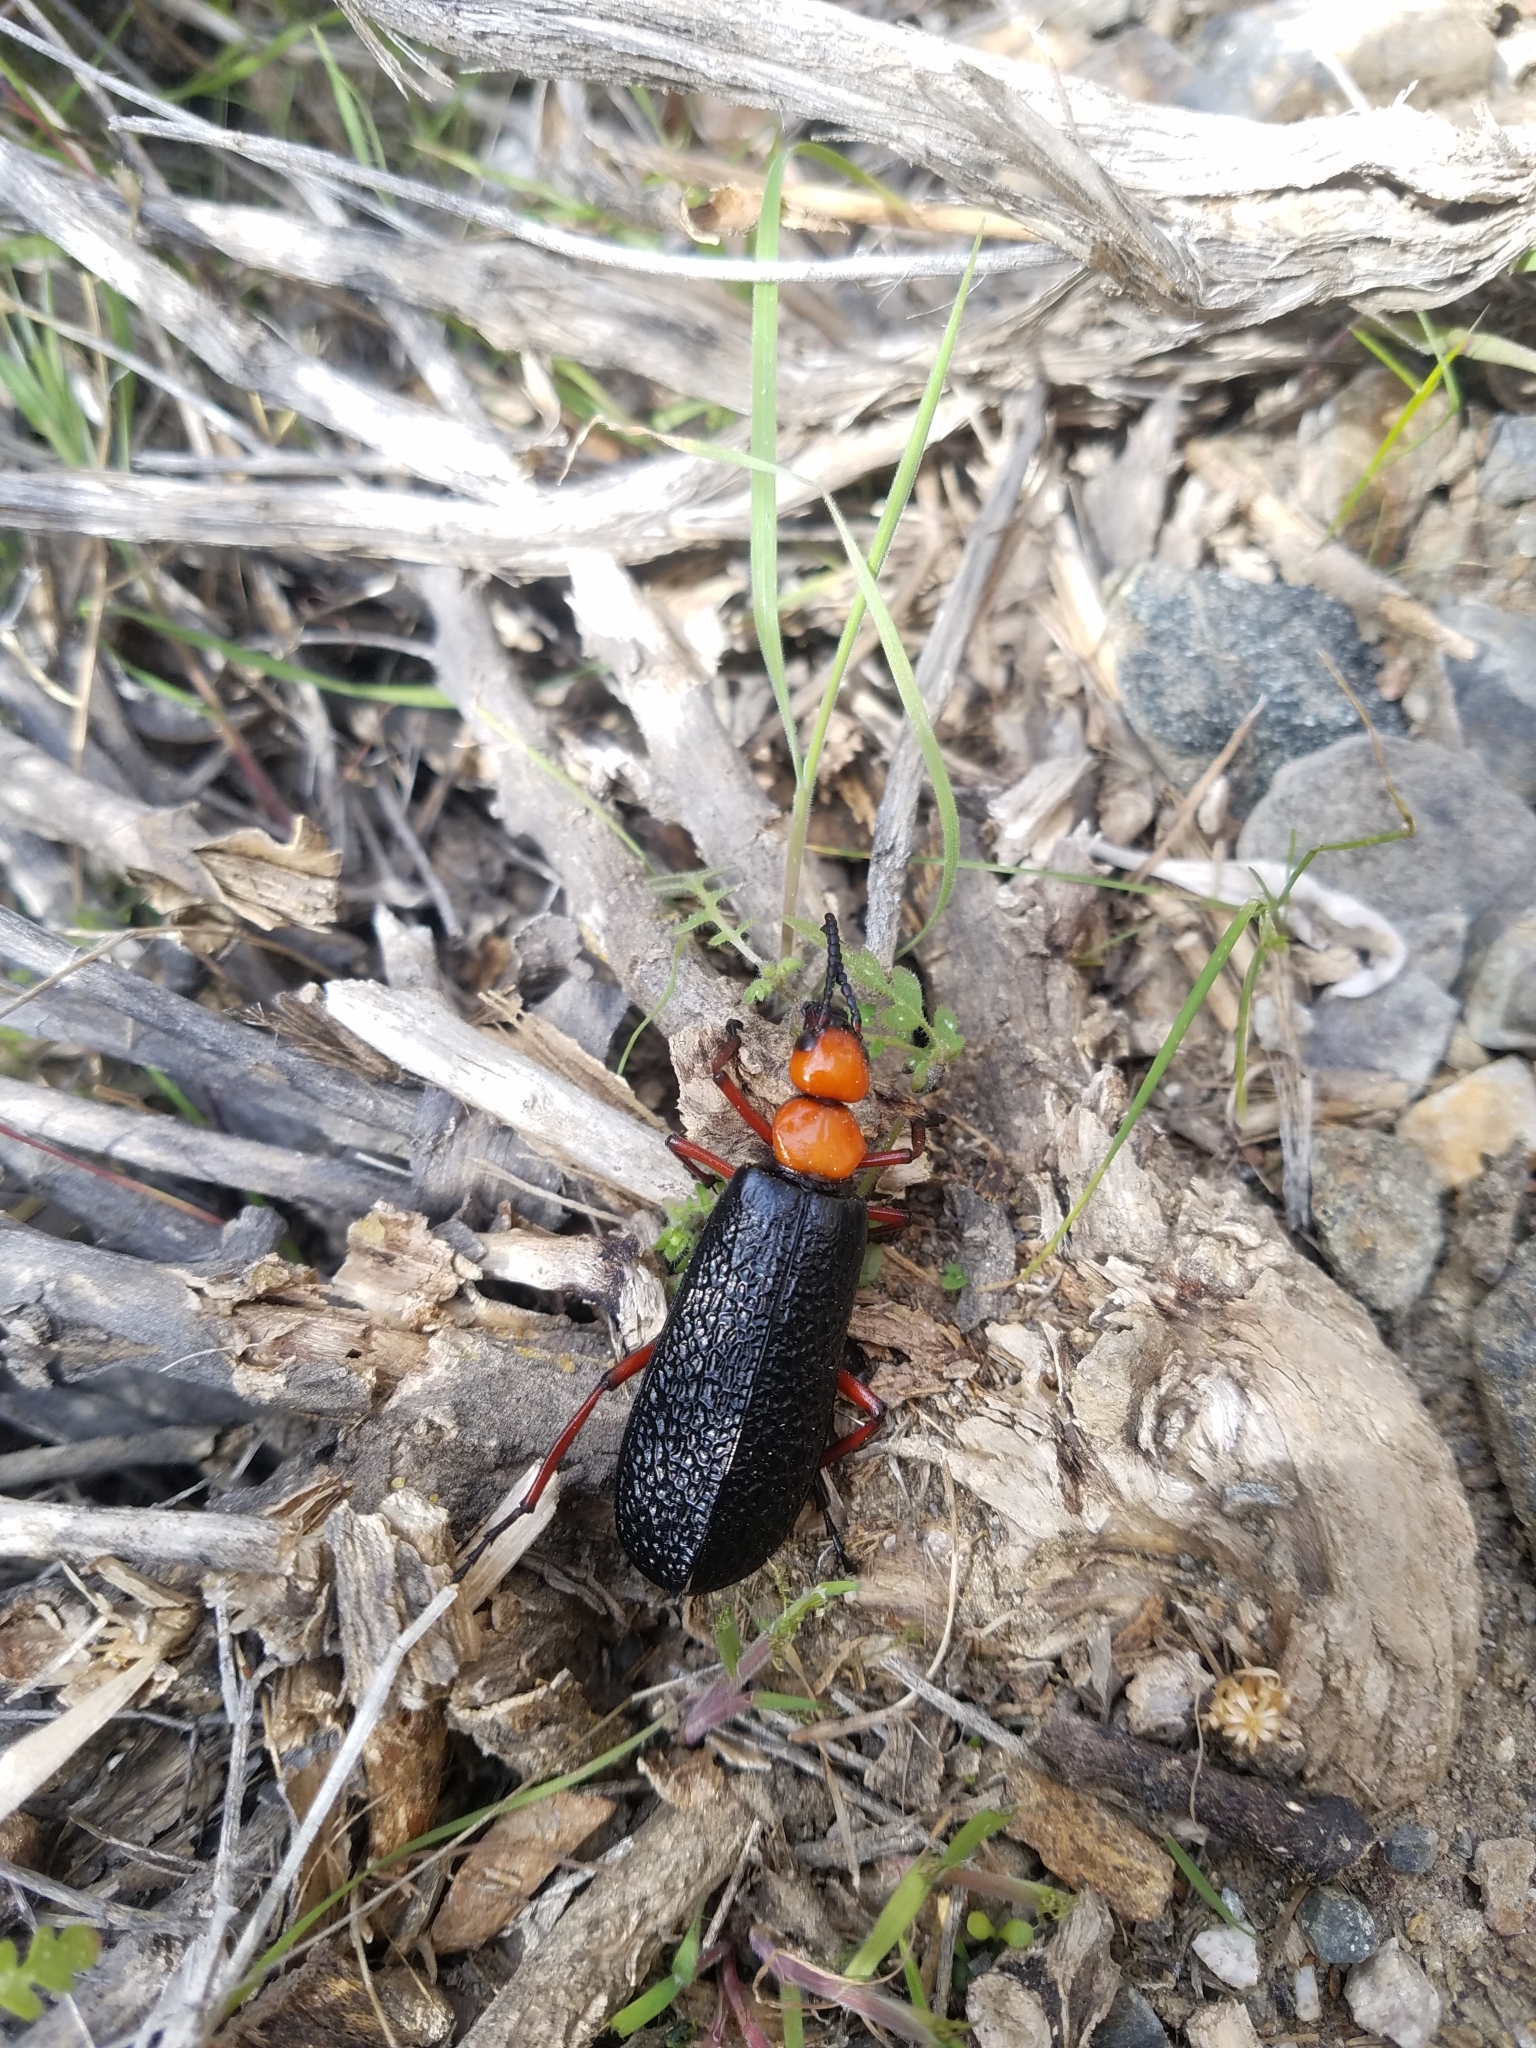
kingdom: Animalia
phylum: Arthropoda
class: Insecta
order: Coleoptera
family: Meloidae
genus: Lytta
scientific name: Lytta magister
